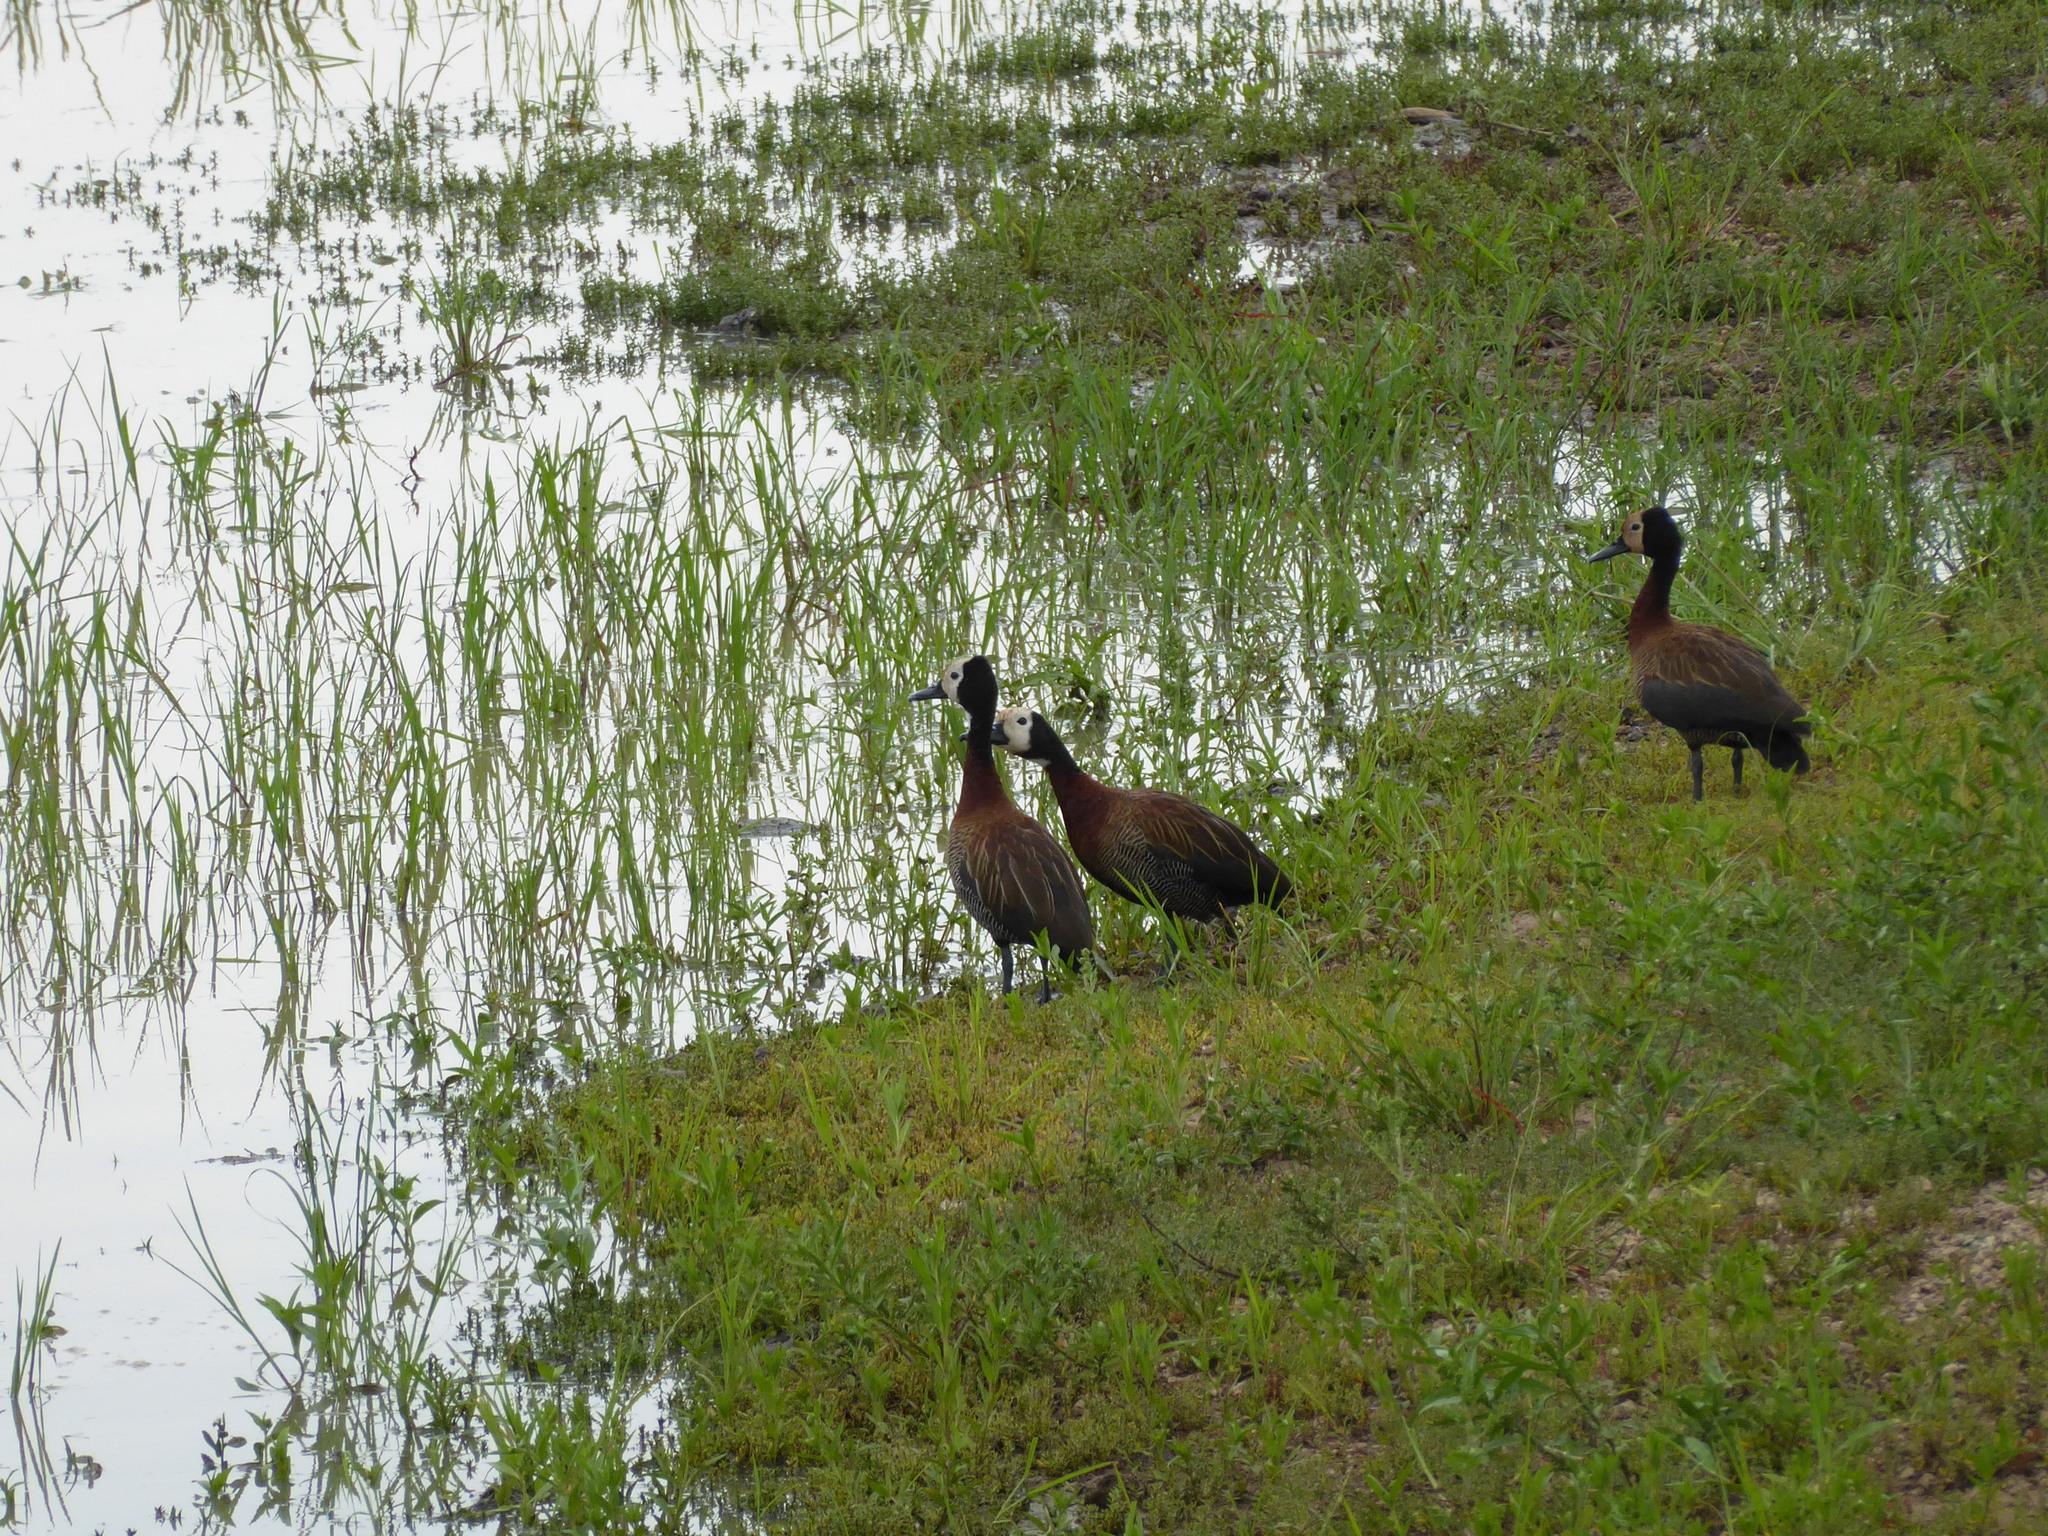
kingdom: Animalia
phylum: Chordata
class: Aves
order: Anseriformes
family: Anatidae
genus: Dendrocygna
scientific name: Dendrocygna viduata
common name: White-faced whistling duck
